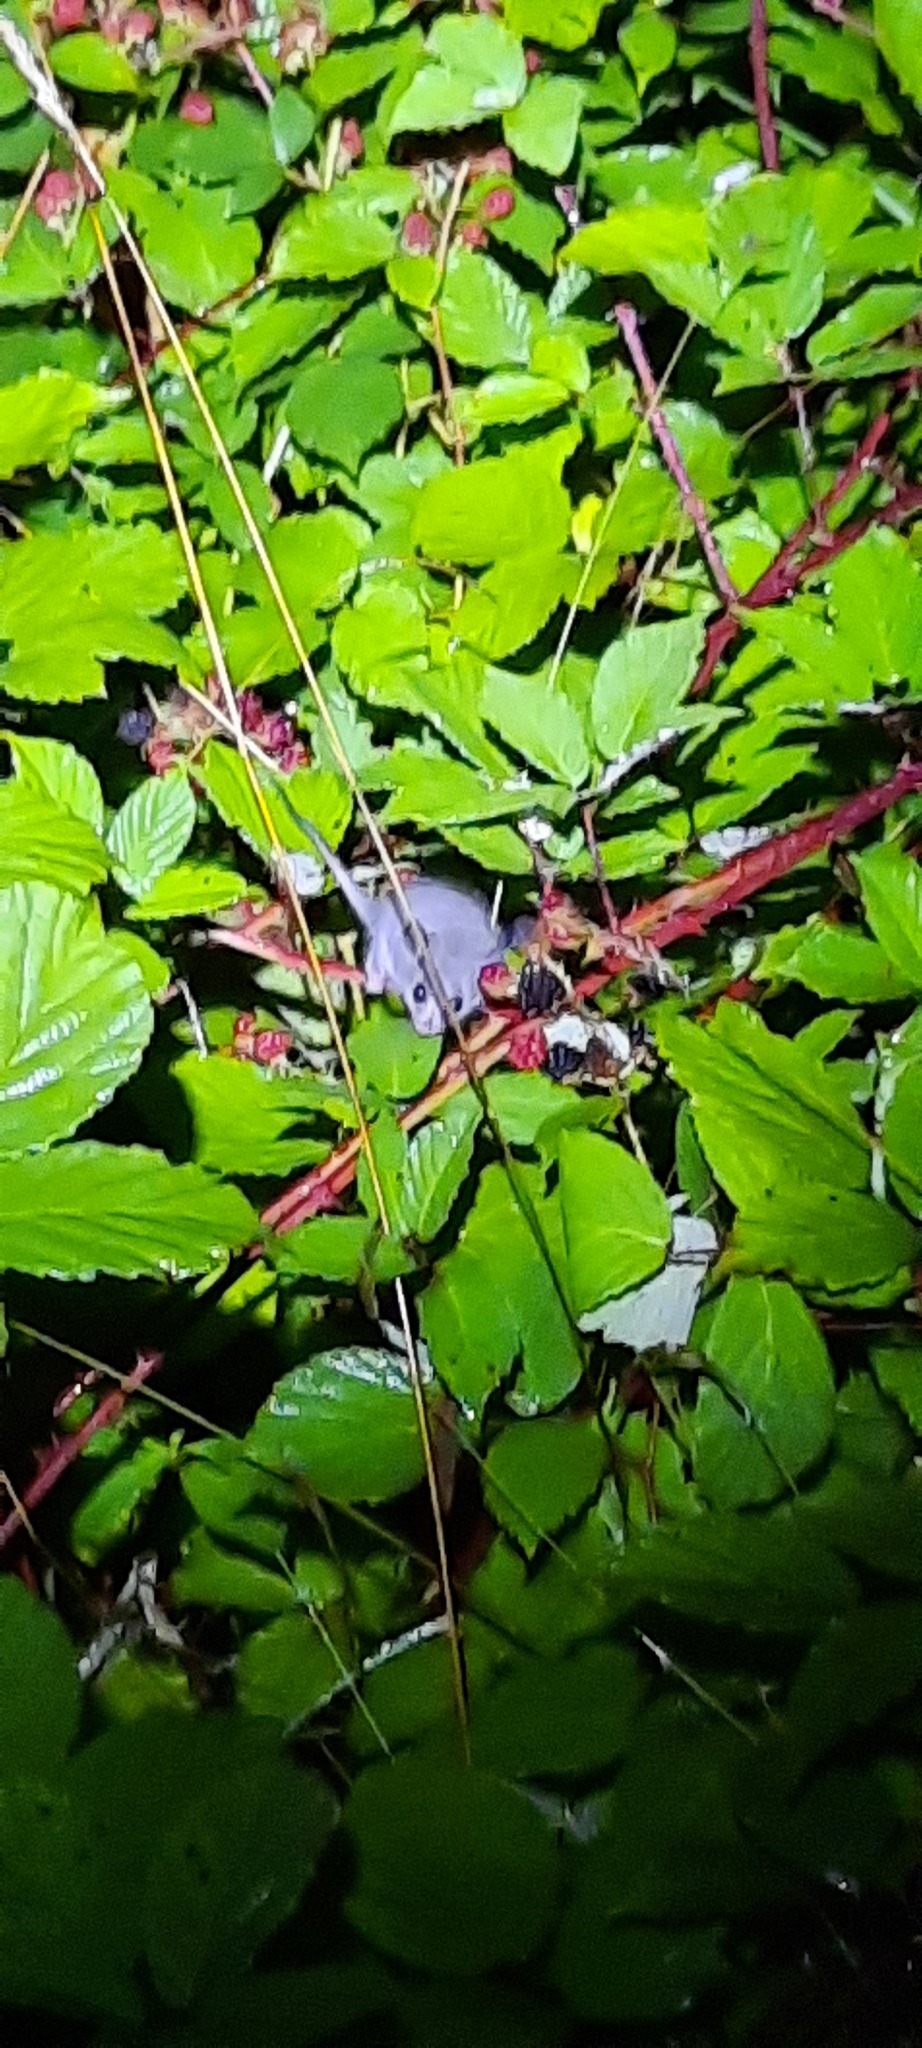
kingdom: Animalia
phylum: Chordata
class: Mammalia
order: Diprotodontia
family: Burramyidae
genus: Cercartetus
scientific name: Cercartetus nanus
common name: Eastern pygmy possum
